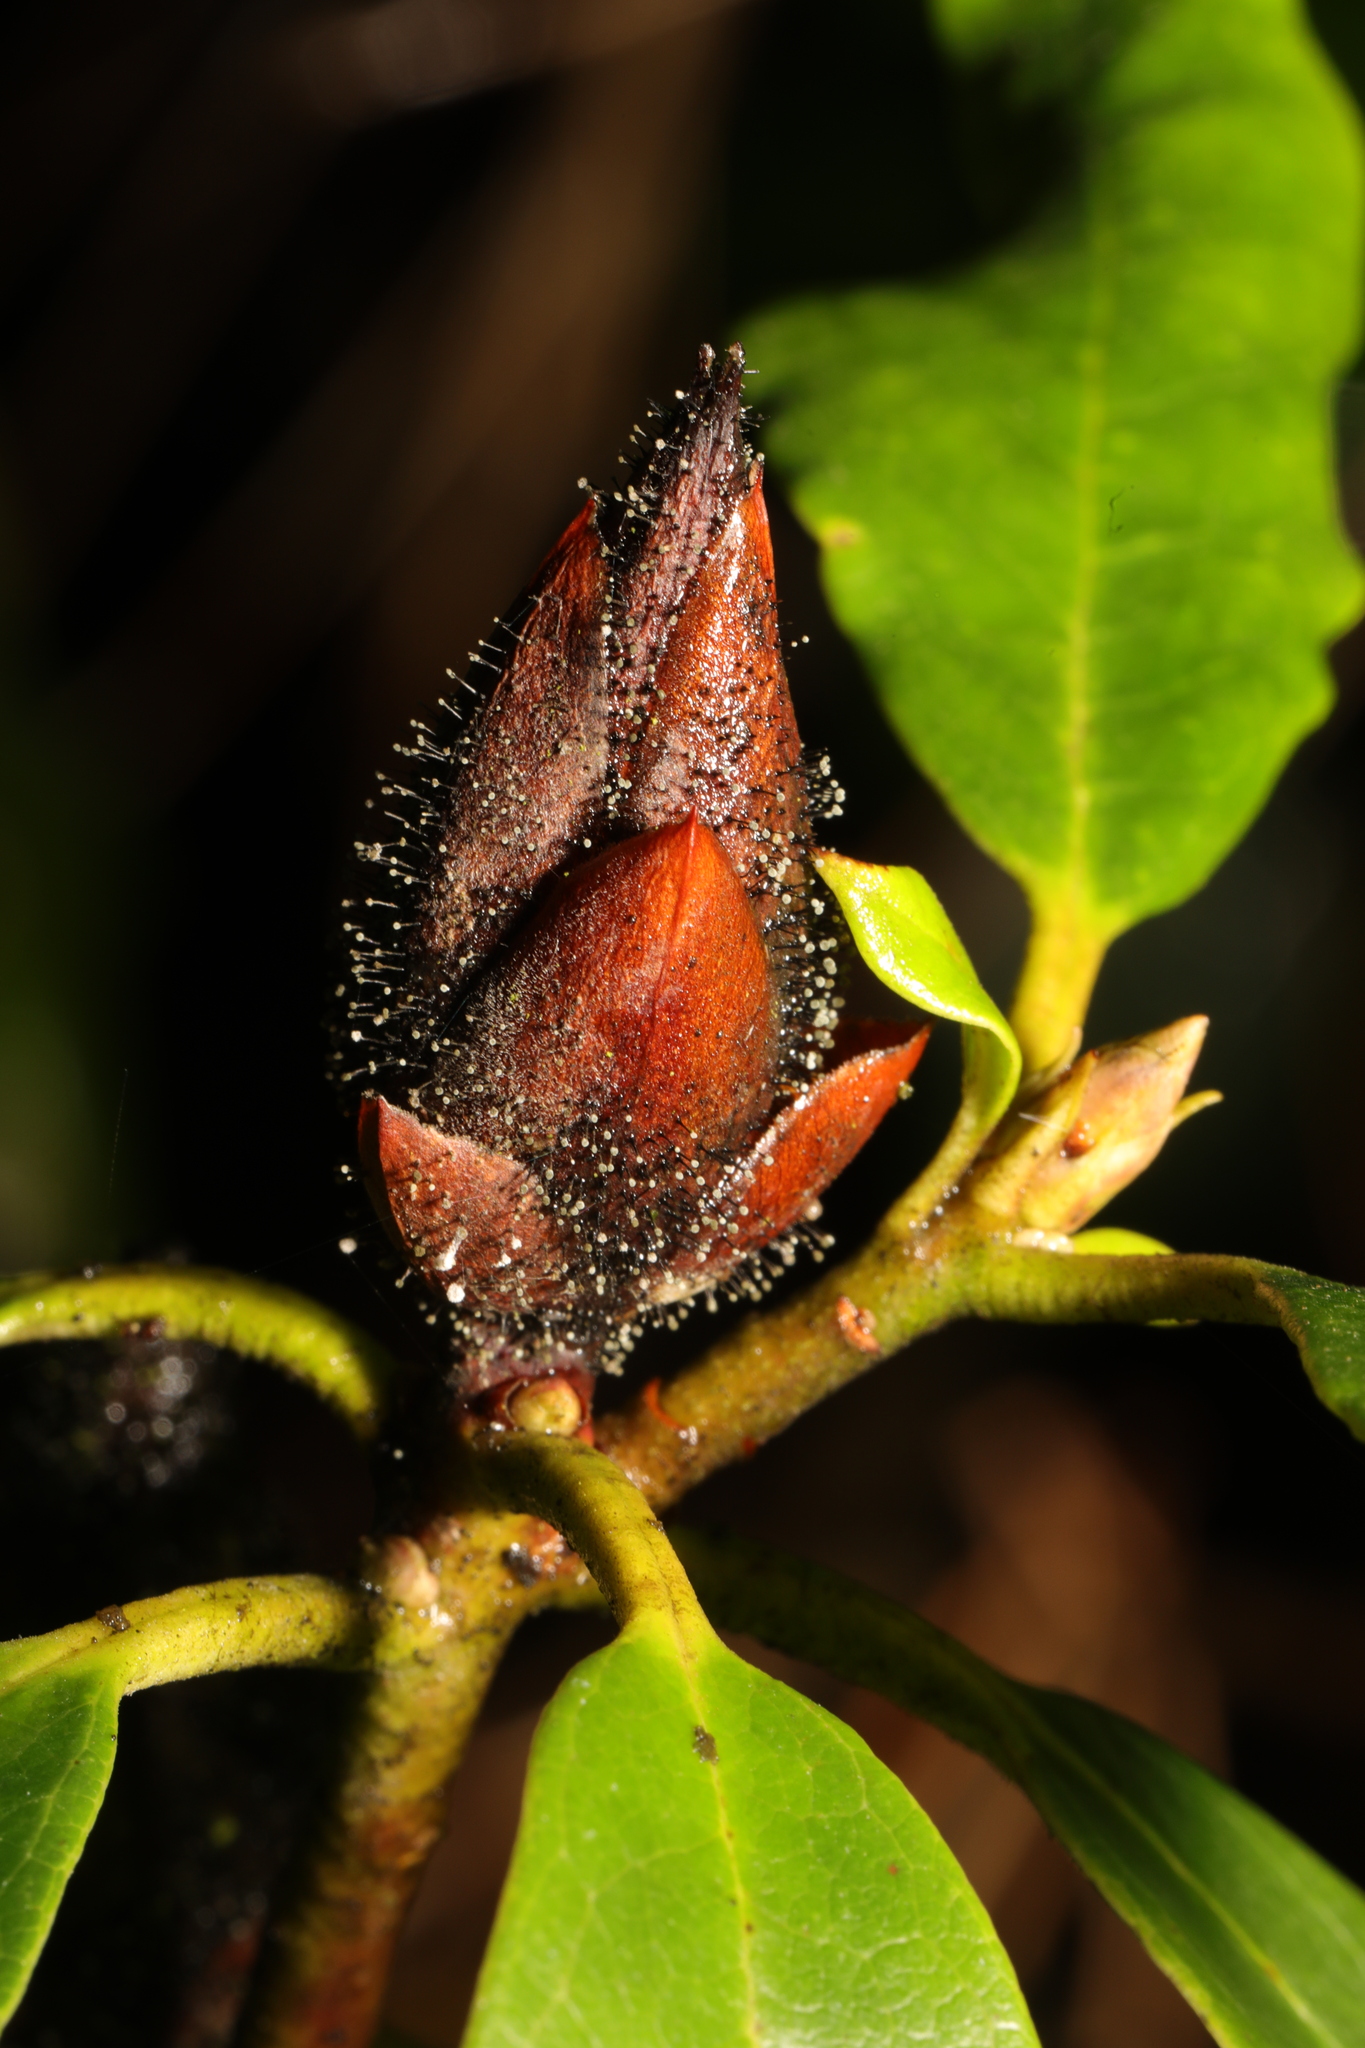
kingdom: Fungi
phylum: Ascomycota
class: Dothideomycetes
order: Pleosporales
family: Melanommataceae
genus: Seifertia
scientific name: Seifertia azaleae
